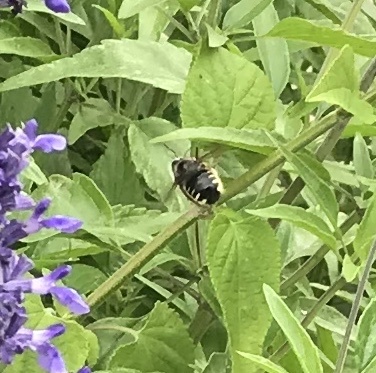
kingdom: Animalia
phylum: Arthropoda
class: Insecta
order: Hymenoptera
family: Apidae
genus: Xylocopa
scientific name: Xylocopa tabaniformis
